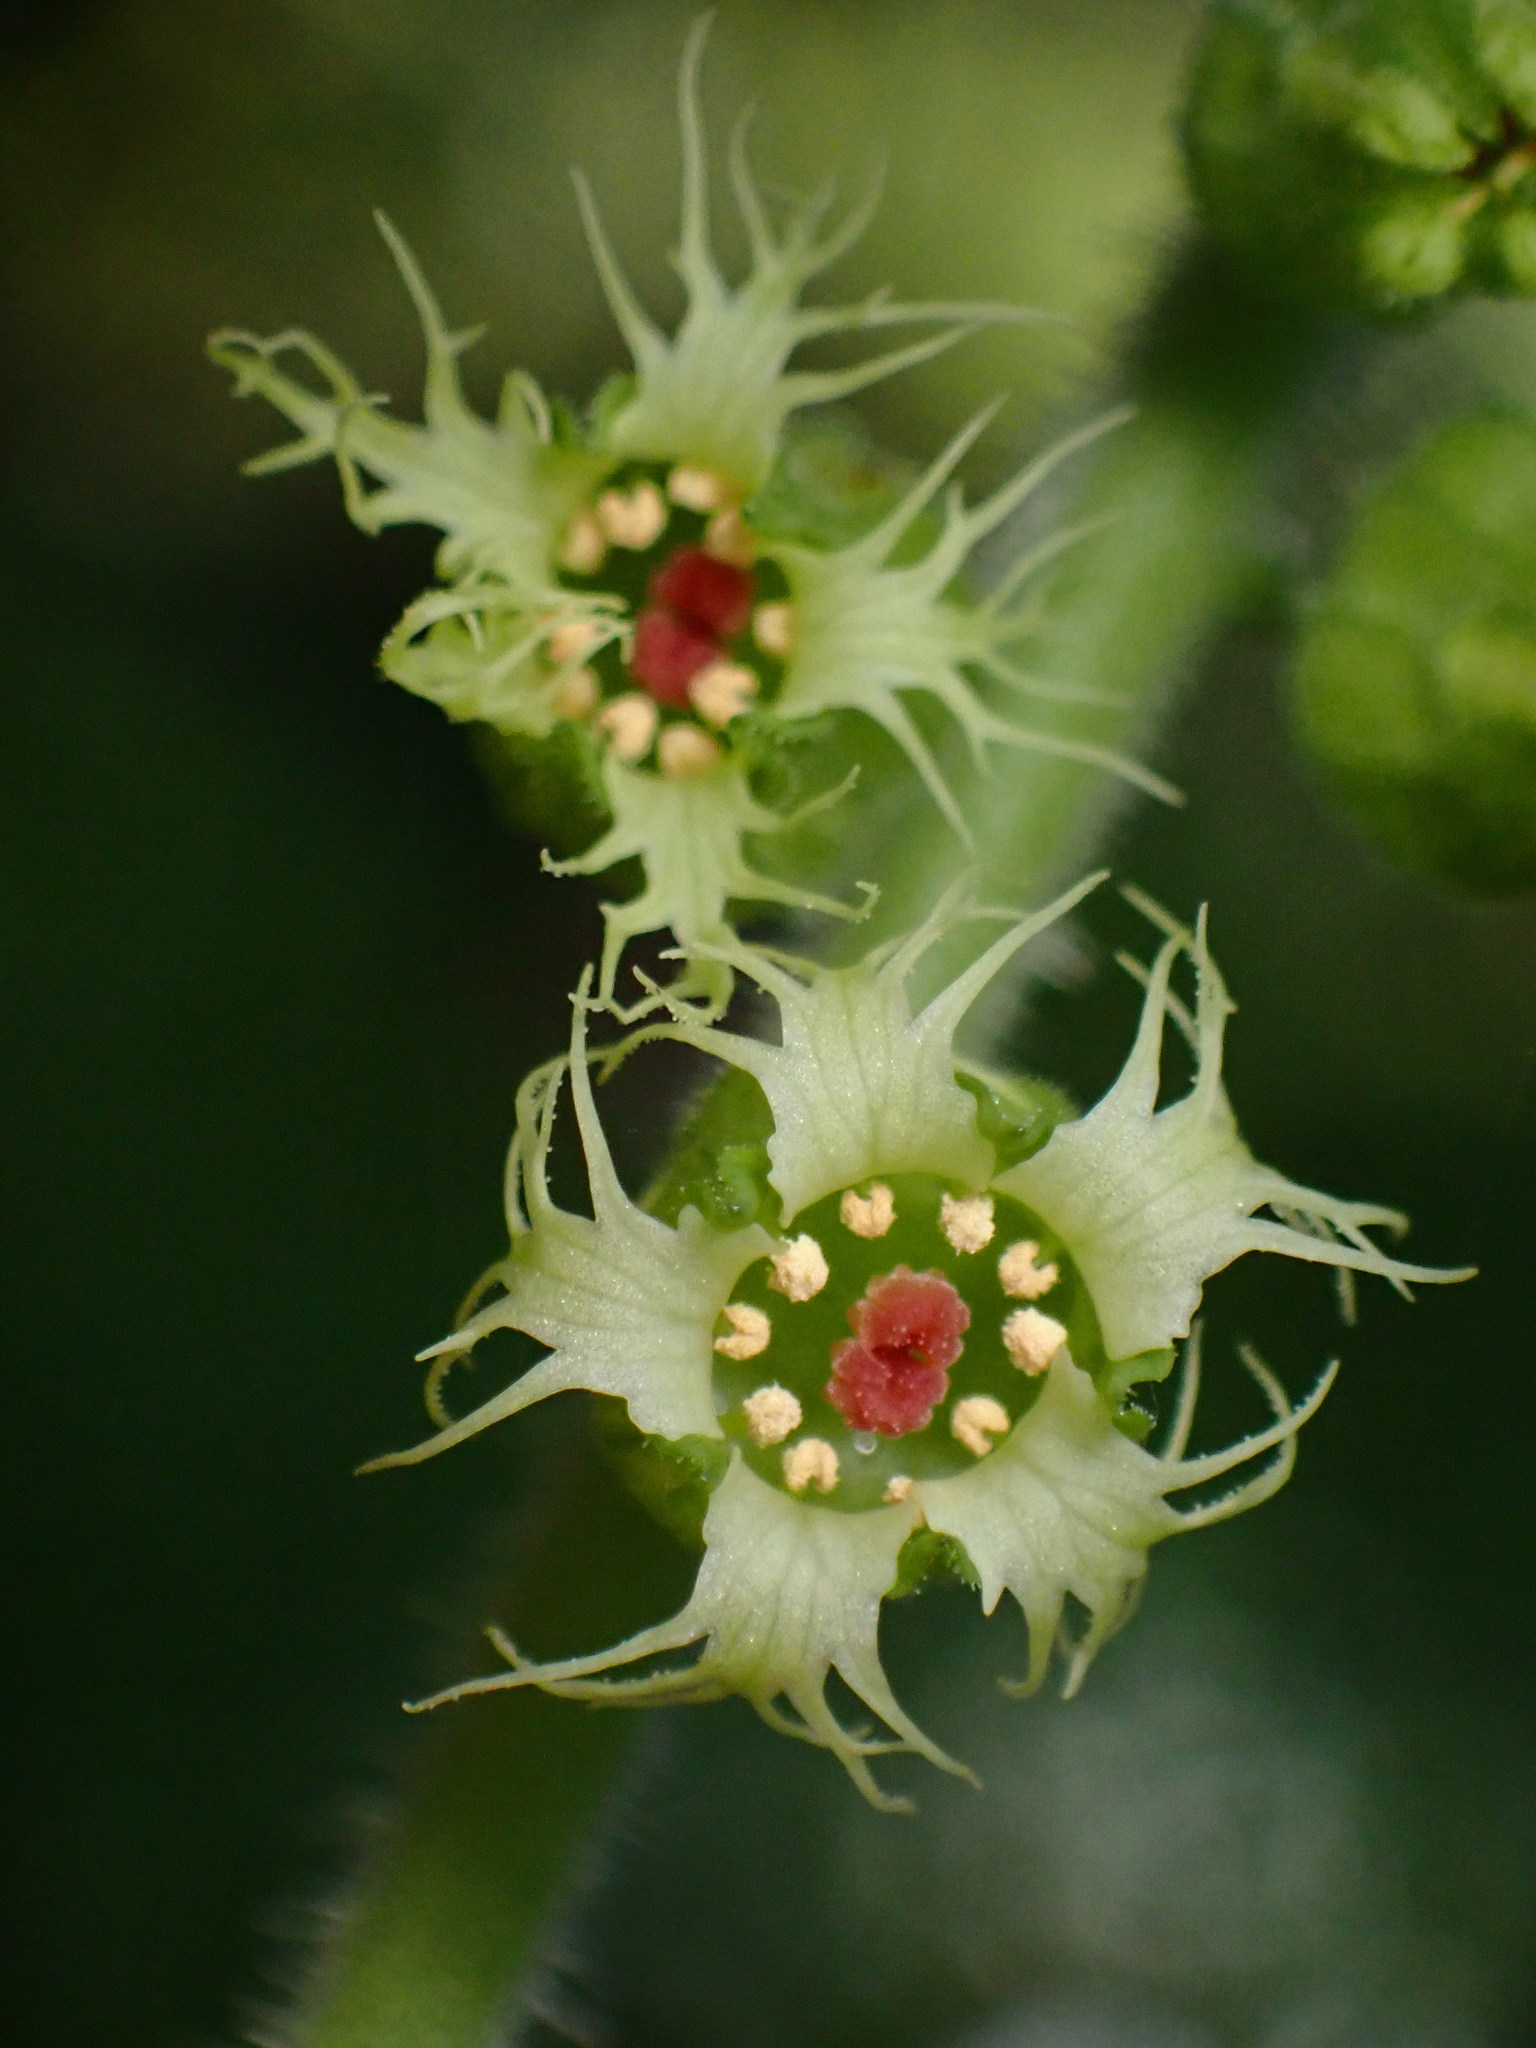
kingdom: Plantae
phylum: Tracheophyta
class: Magnoliopsida
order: Saxifragales
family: Saxifragaceae
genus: Tellima
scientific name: Tellima grandiflora
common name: Fringecups
